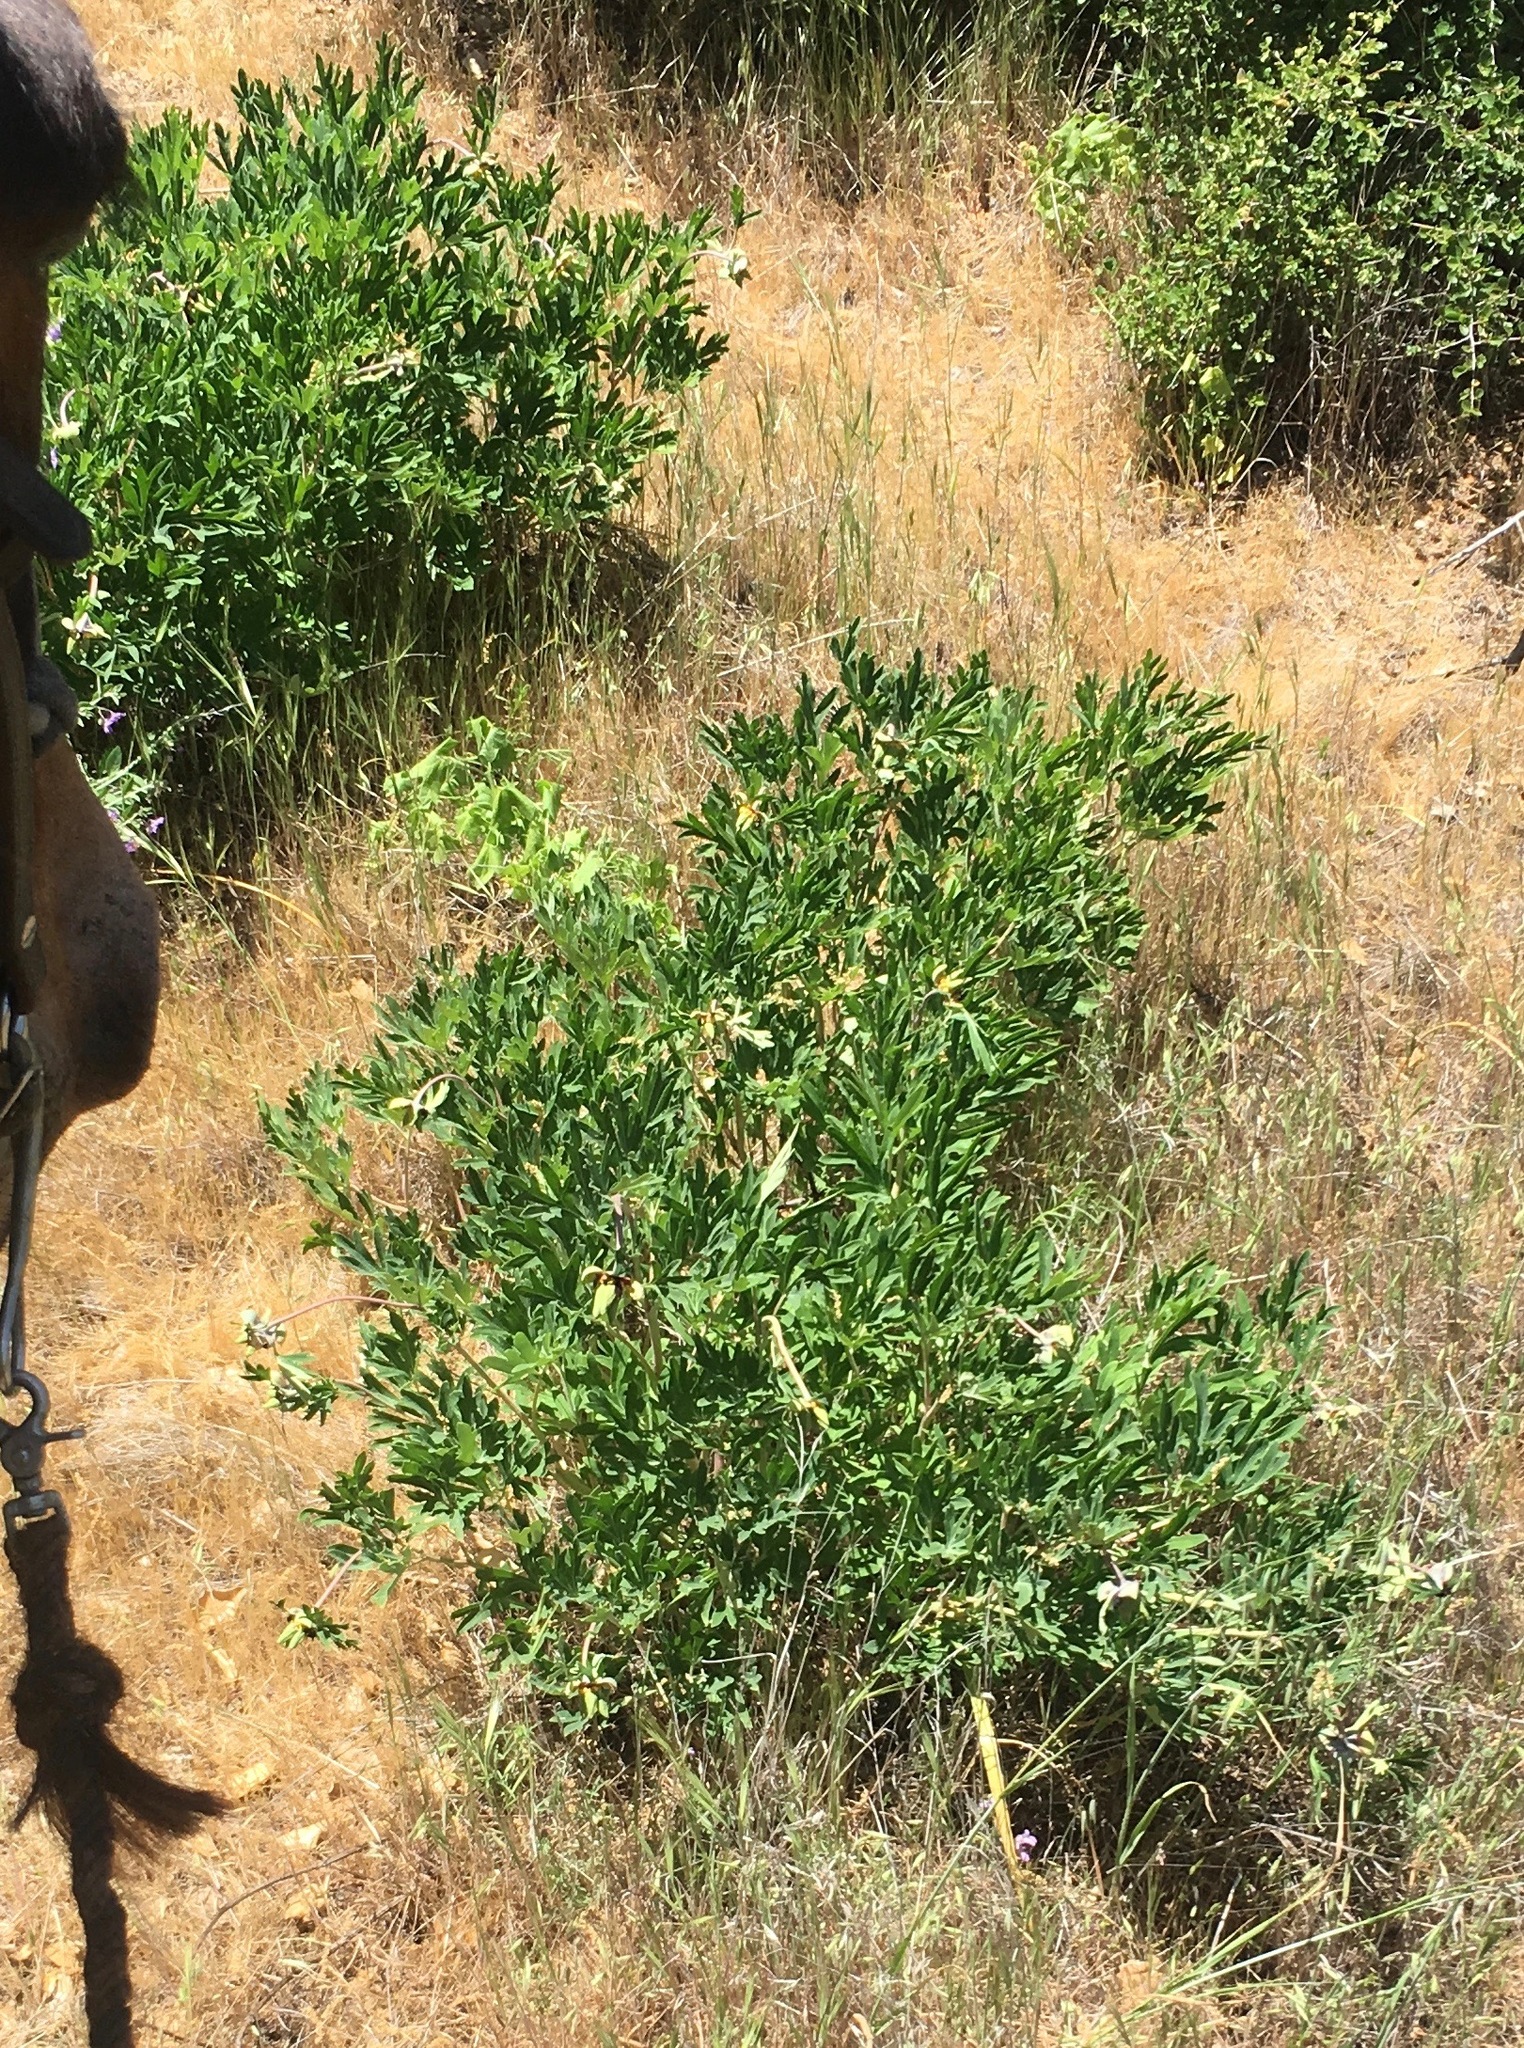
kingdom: Plantae
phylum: Tracheophyta
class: Magnoliopsida
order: Saxifragales
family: Paeoniaceae
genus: Paeonia
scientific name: Paeonia californica
